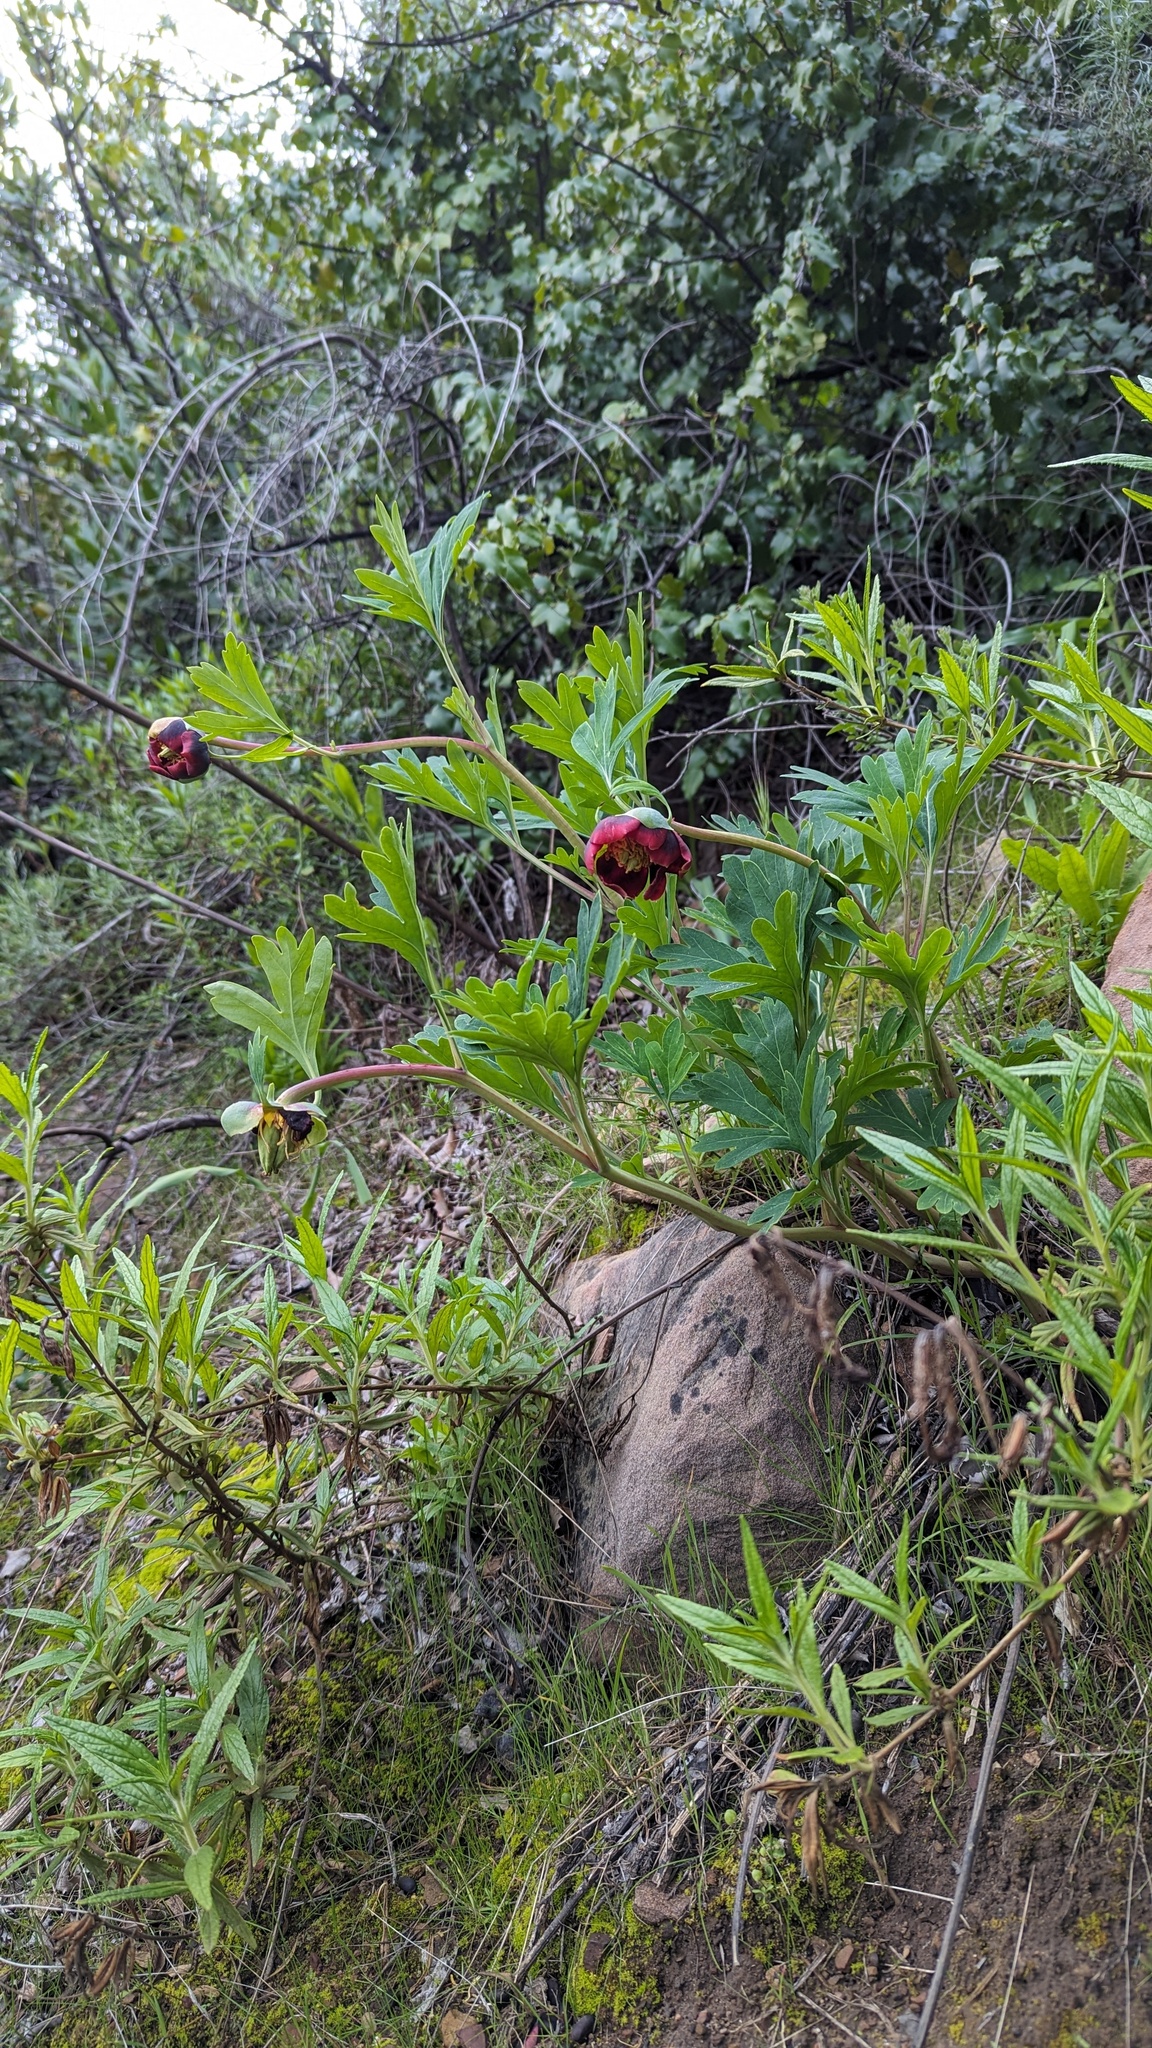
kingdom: Plantae
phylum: Tracheophyta
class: Magnoliopsida
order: Saxifragales
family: Paeoniaceae
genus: Paeonia
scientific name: Paeonia californica
